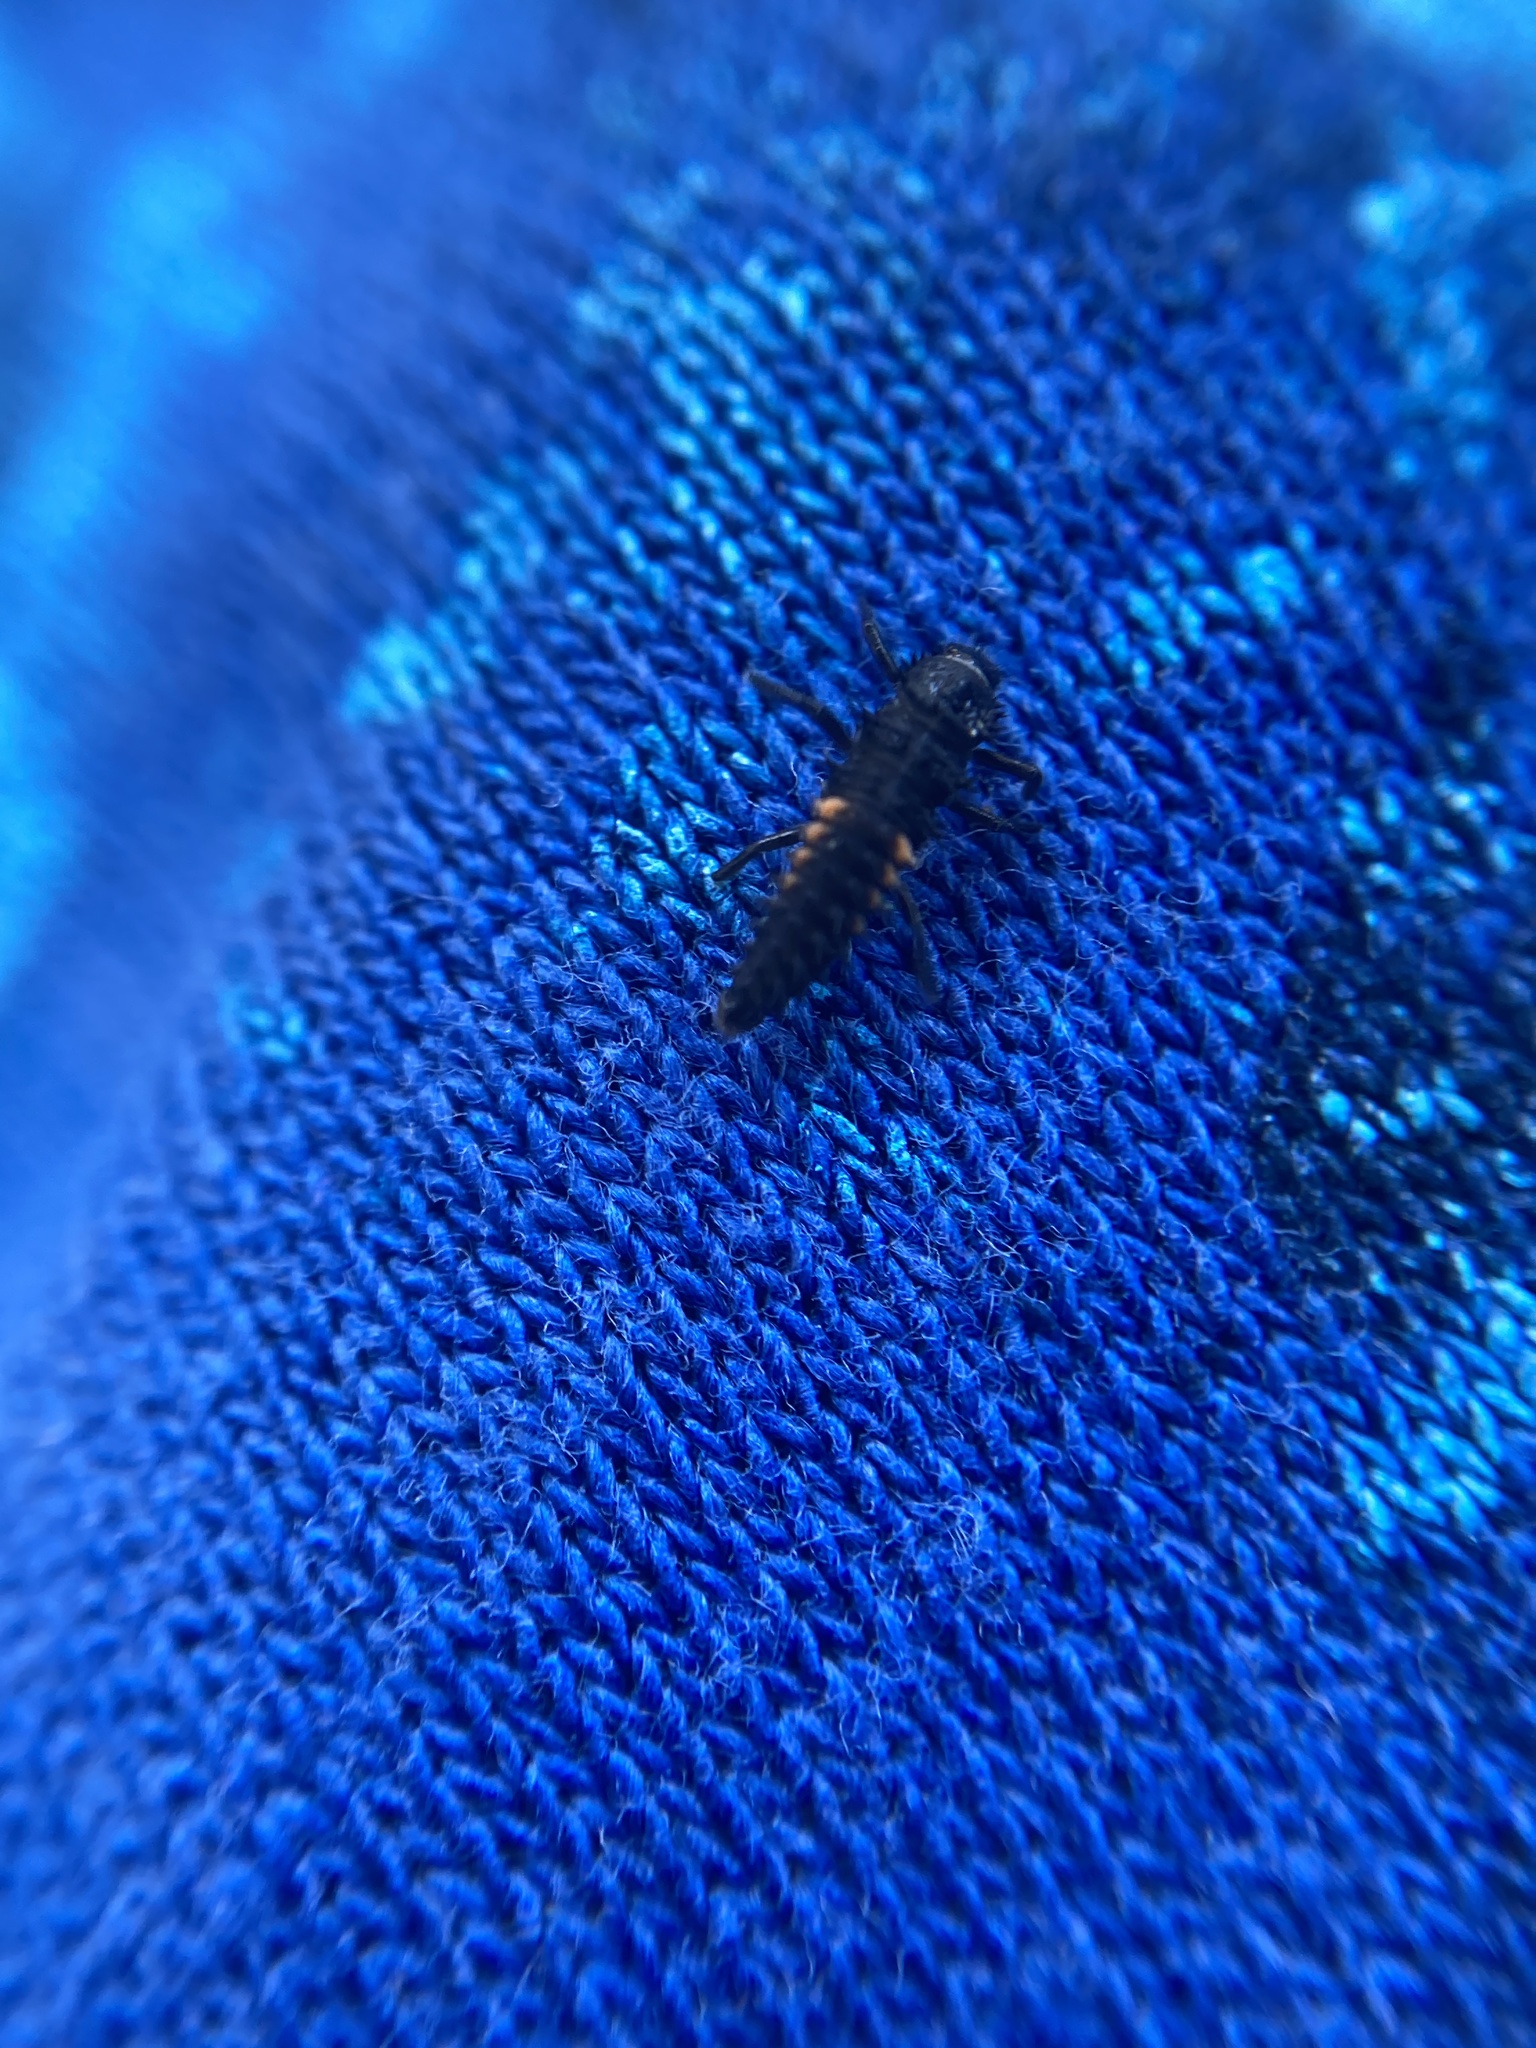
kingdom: Animalia
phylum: Arthropoda
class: Insecta
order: Coleoptera
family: Coccinellidae
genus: Harmonia
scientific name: Harmonia axyridis
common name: Harlequin ladybird
